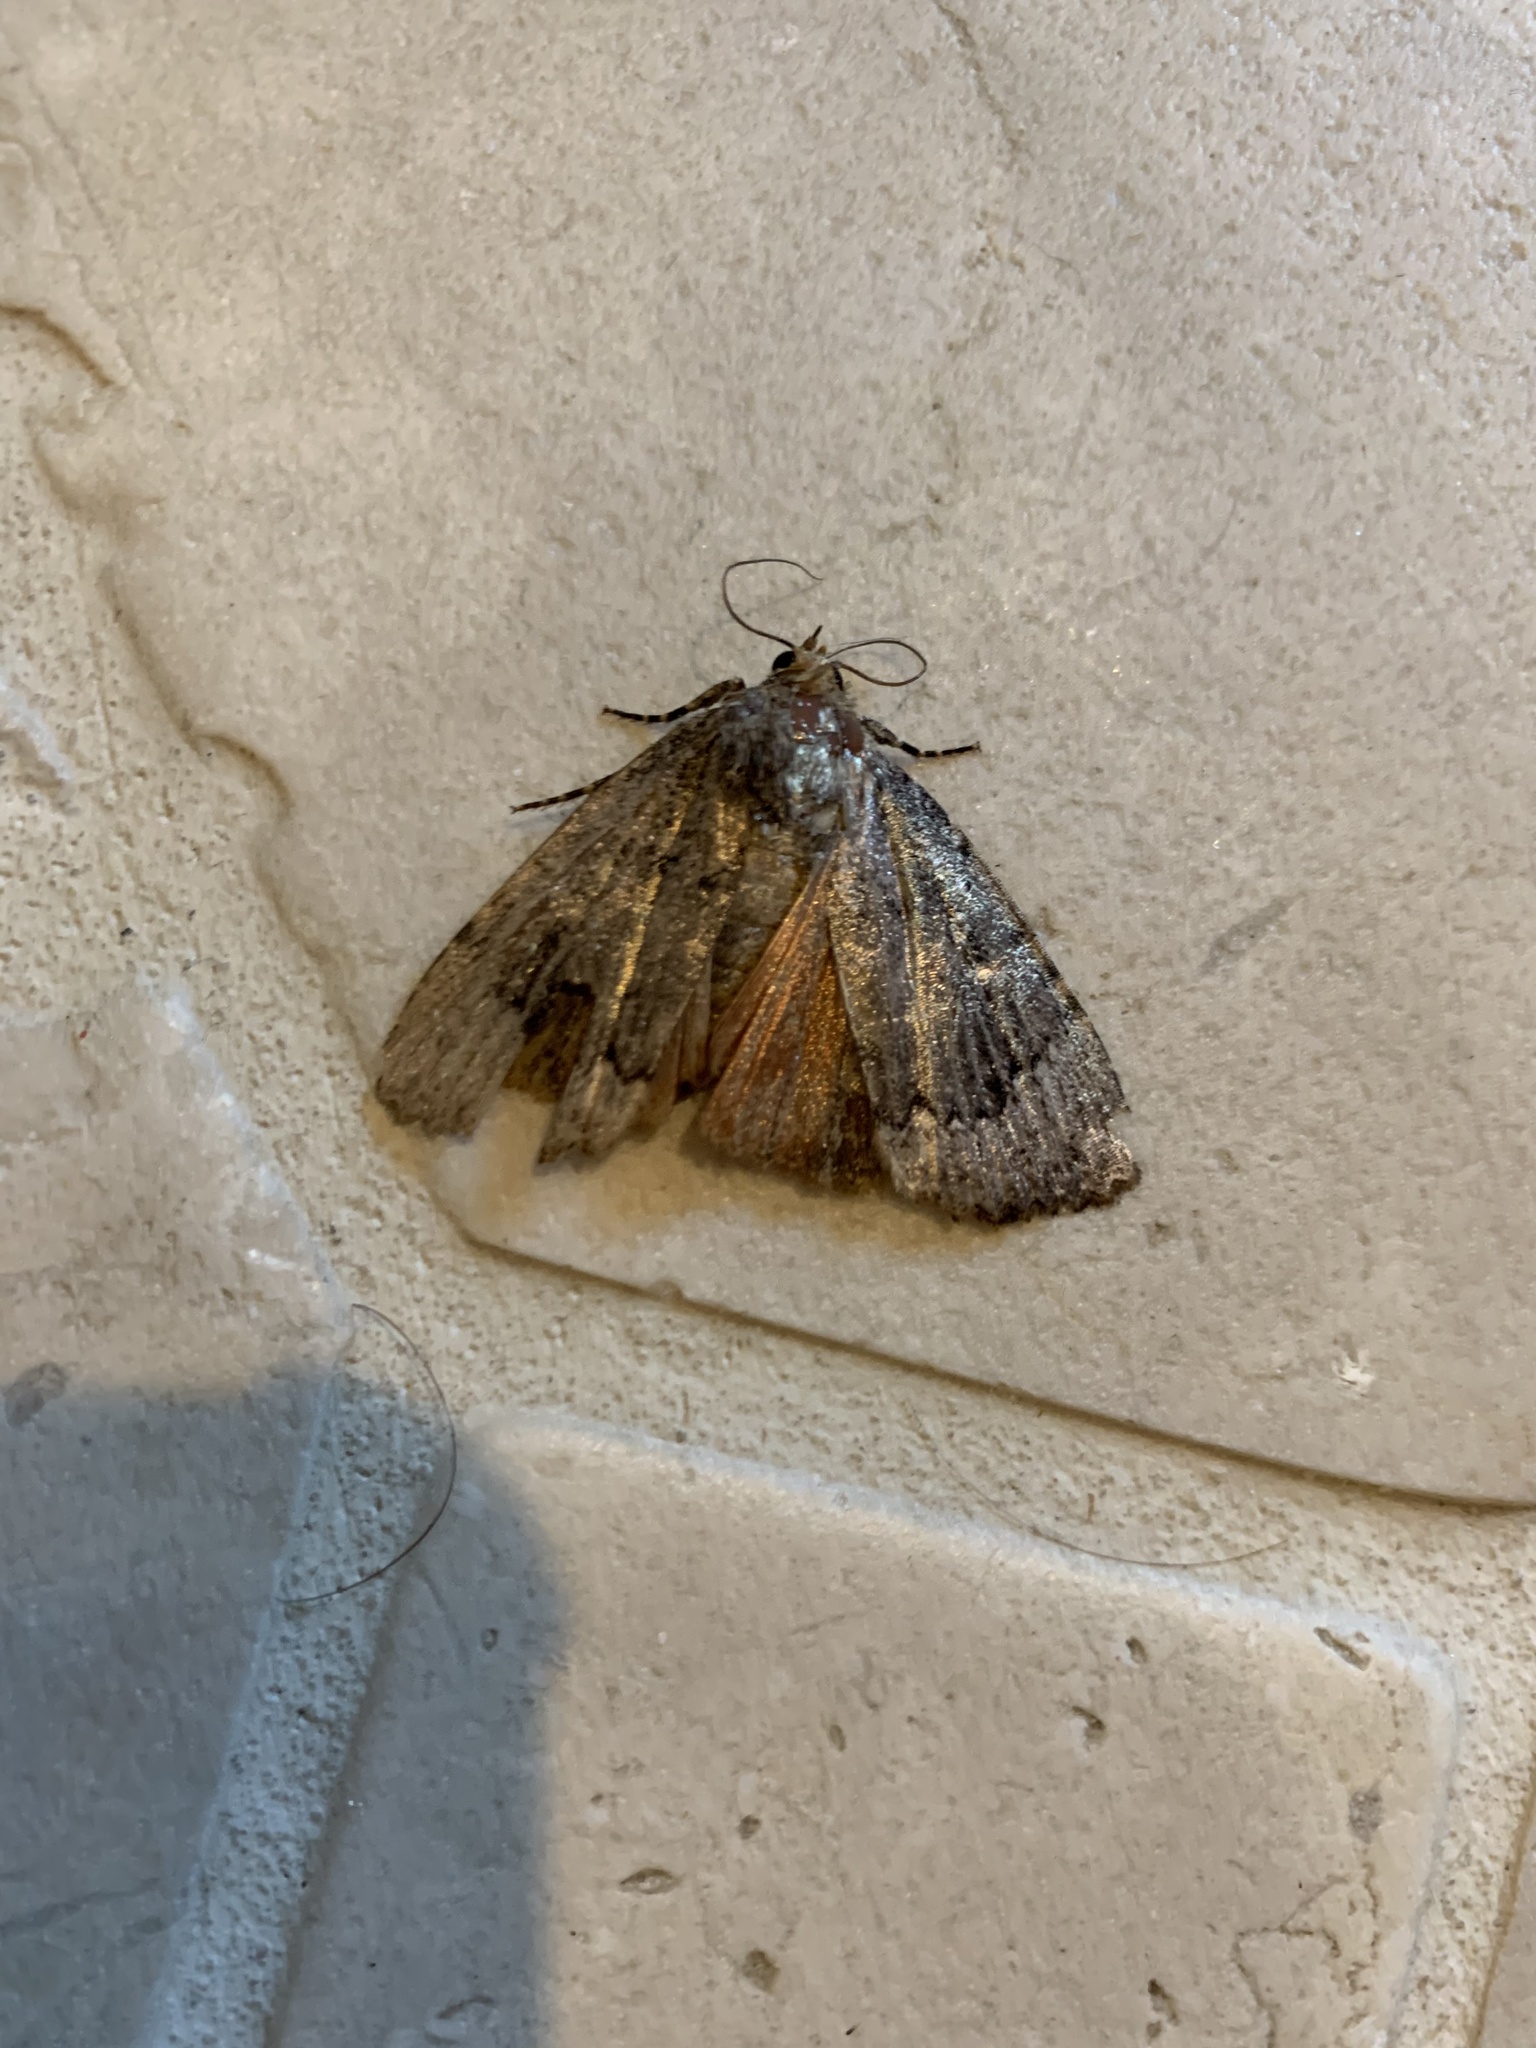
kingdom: Animalia
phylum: Arthropoda
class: Insecta
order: Lepidoptera
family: Noctuidae
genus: Amphipyra
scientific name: Amphipyra pyramidoides
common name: American copper underwing
